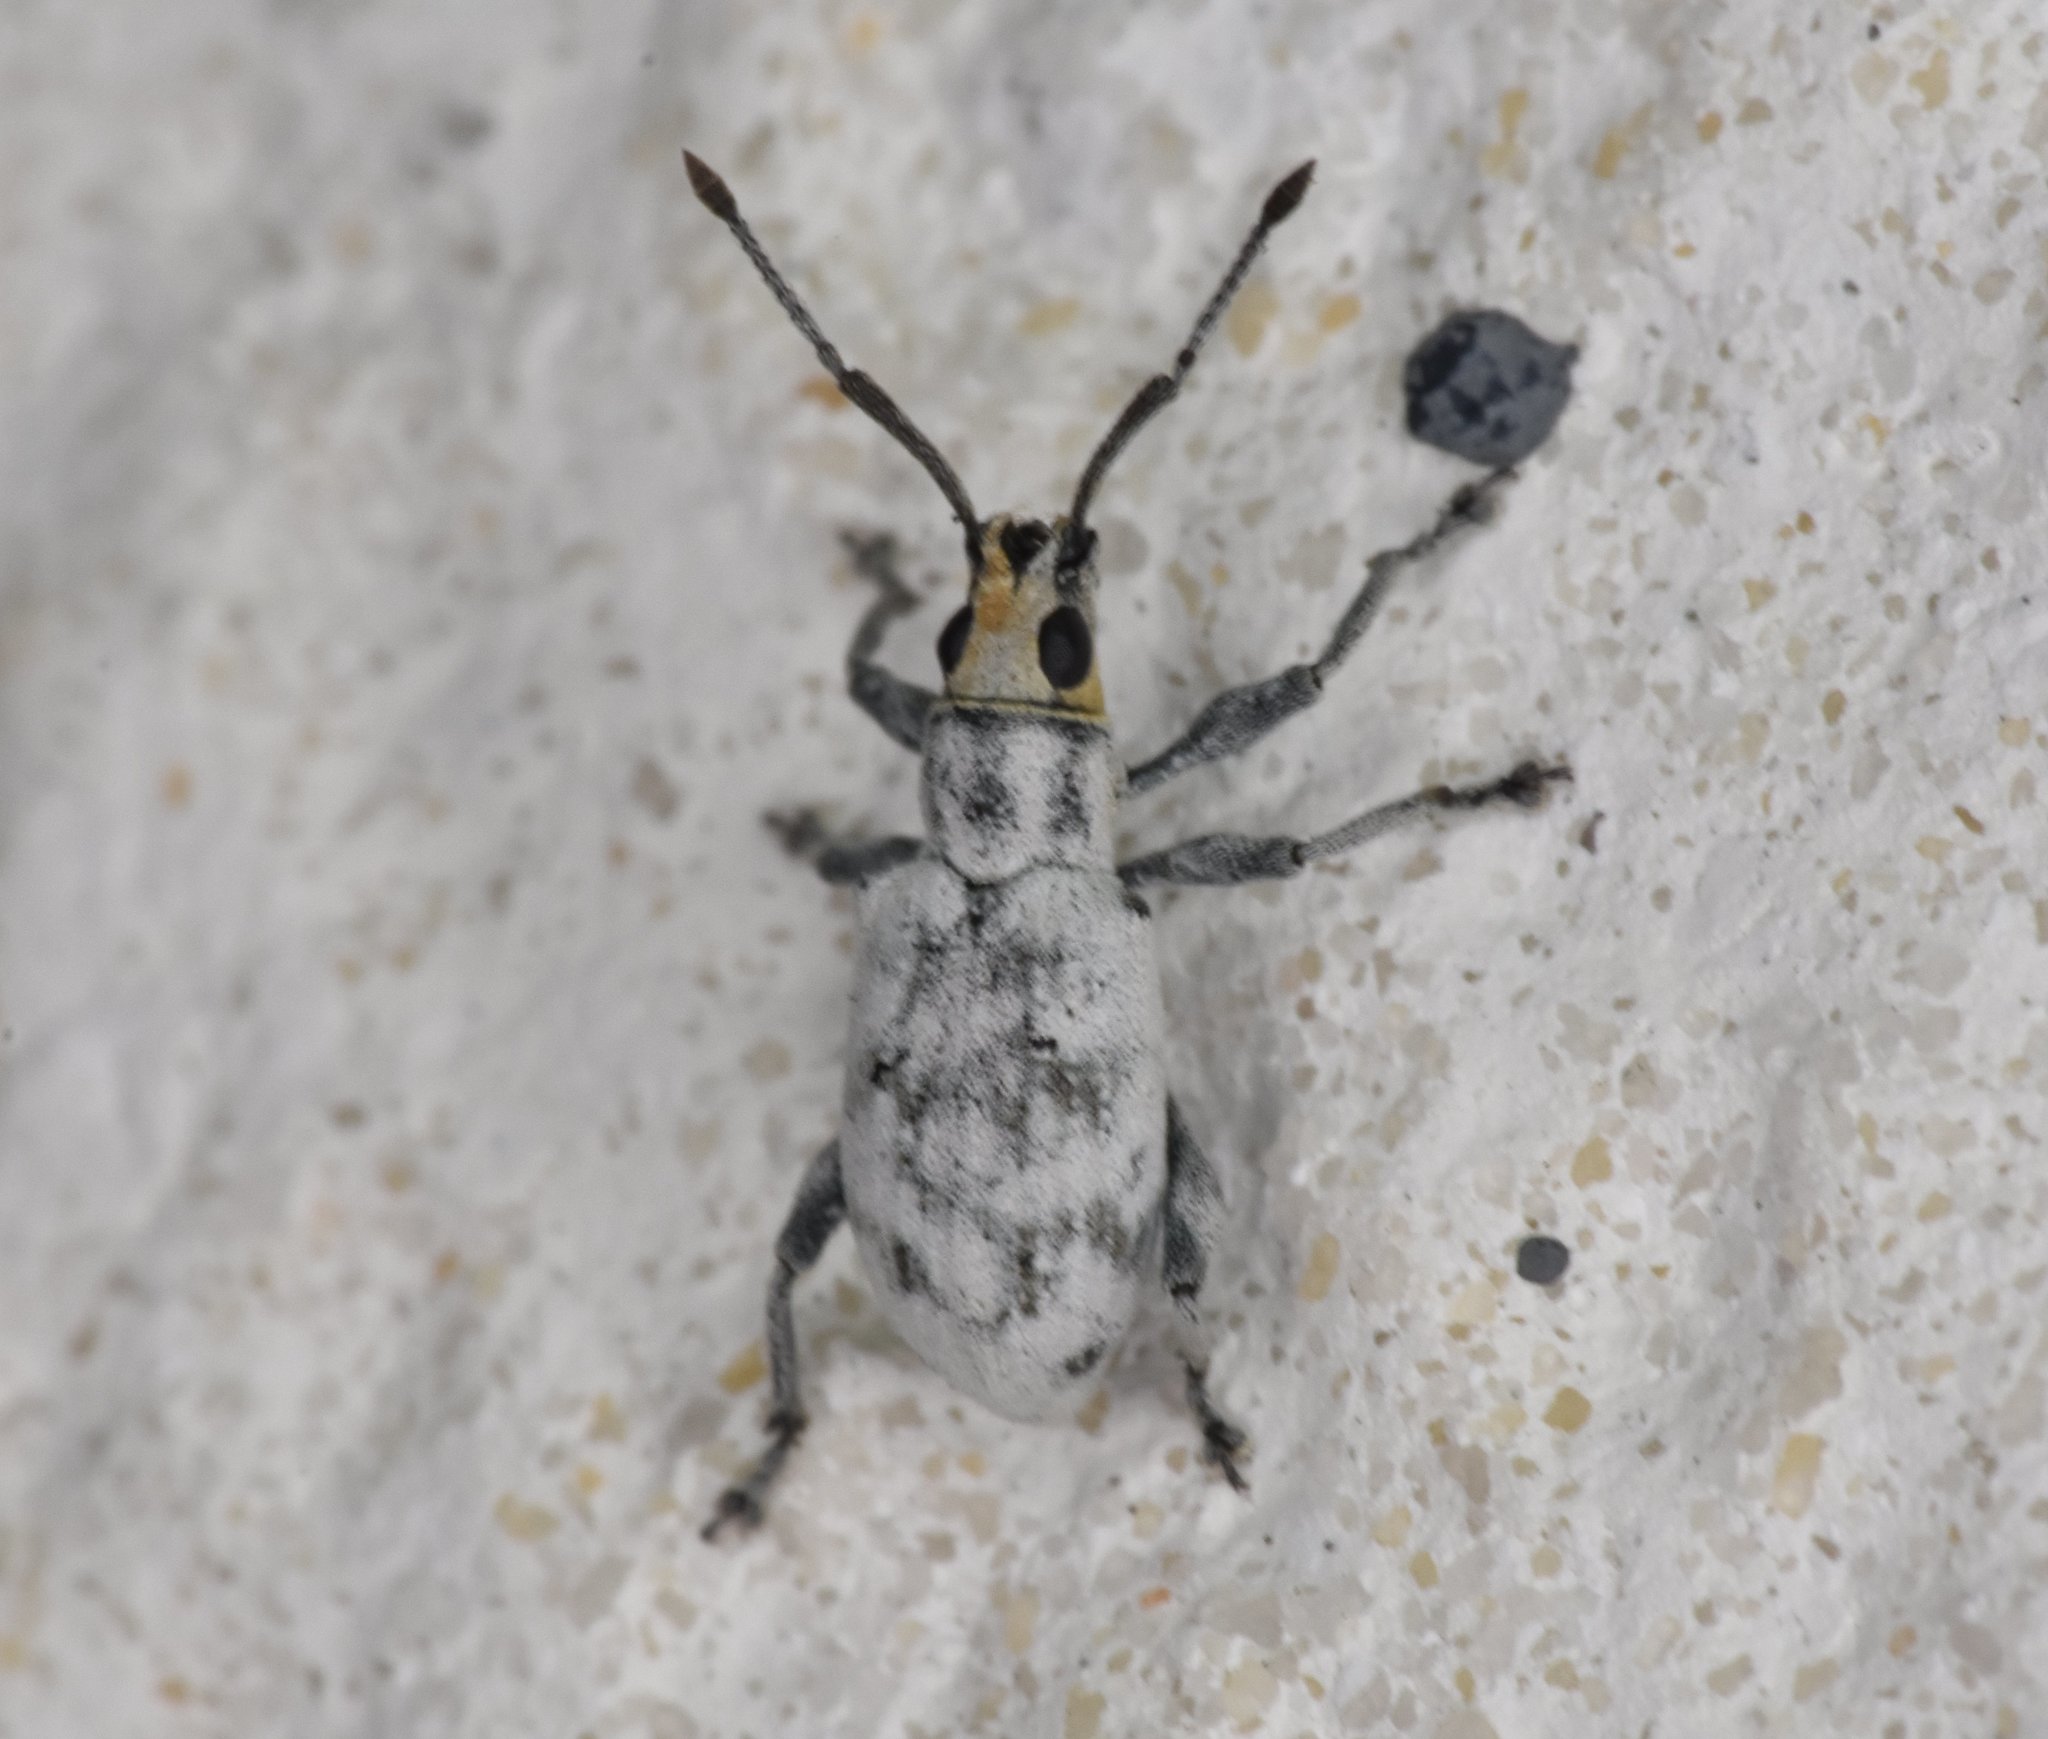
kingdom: Animalia
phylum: Arthropoda
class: Insecta
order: Coleoptera
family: Curculionidae
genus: Myllocerus
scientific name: Myllocerus undecimpustulatus
